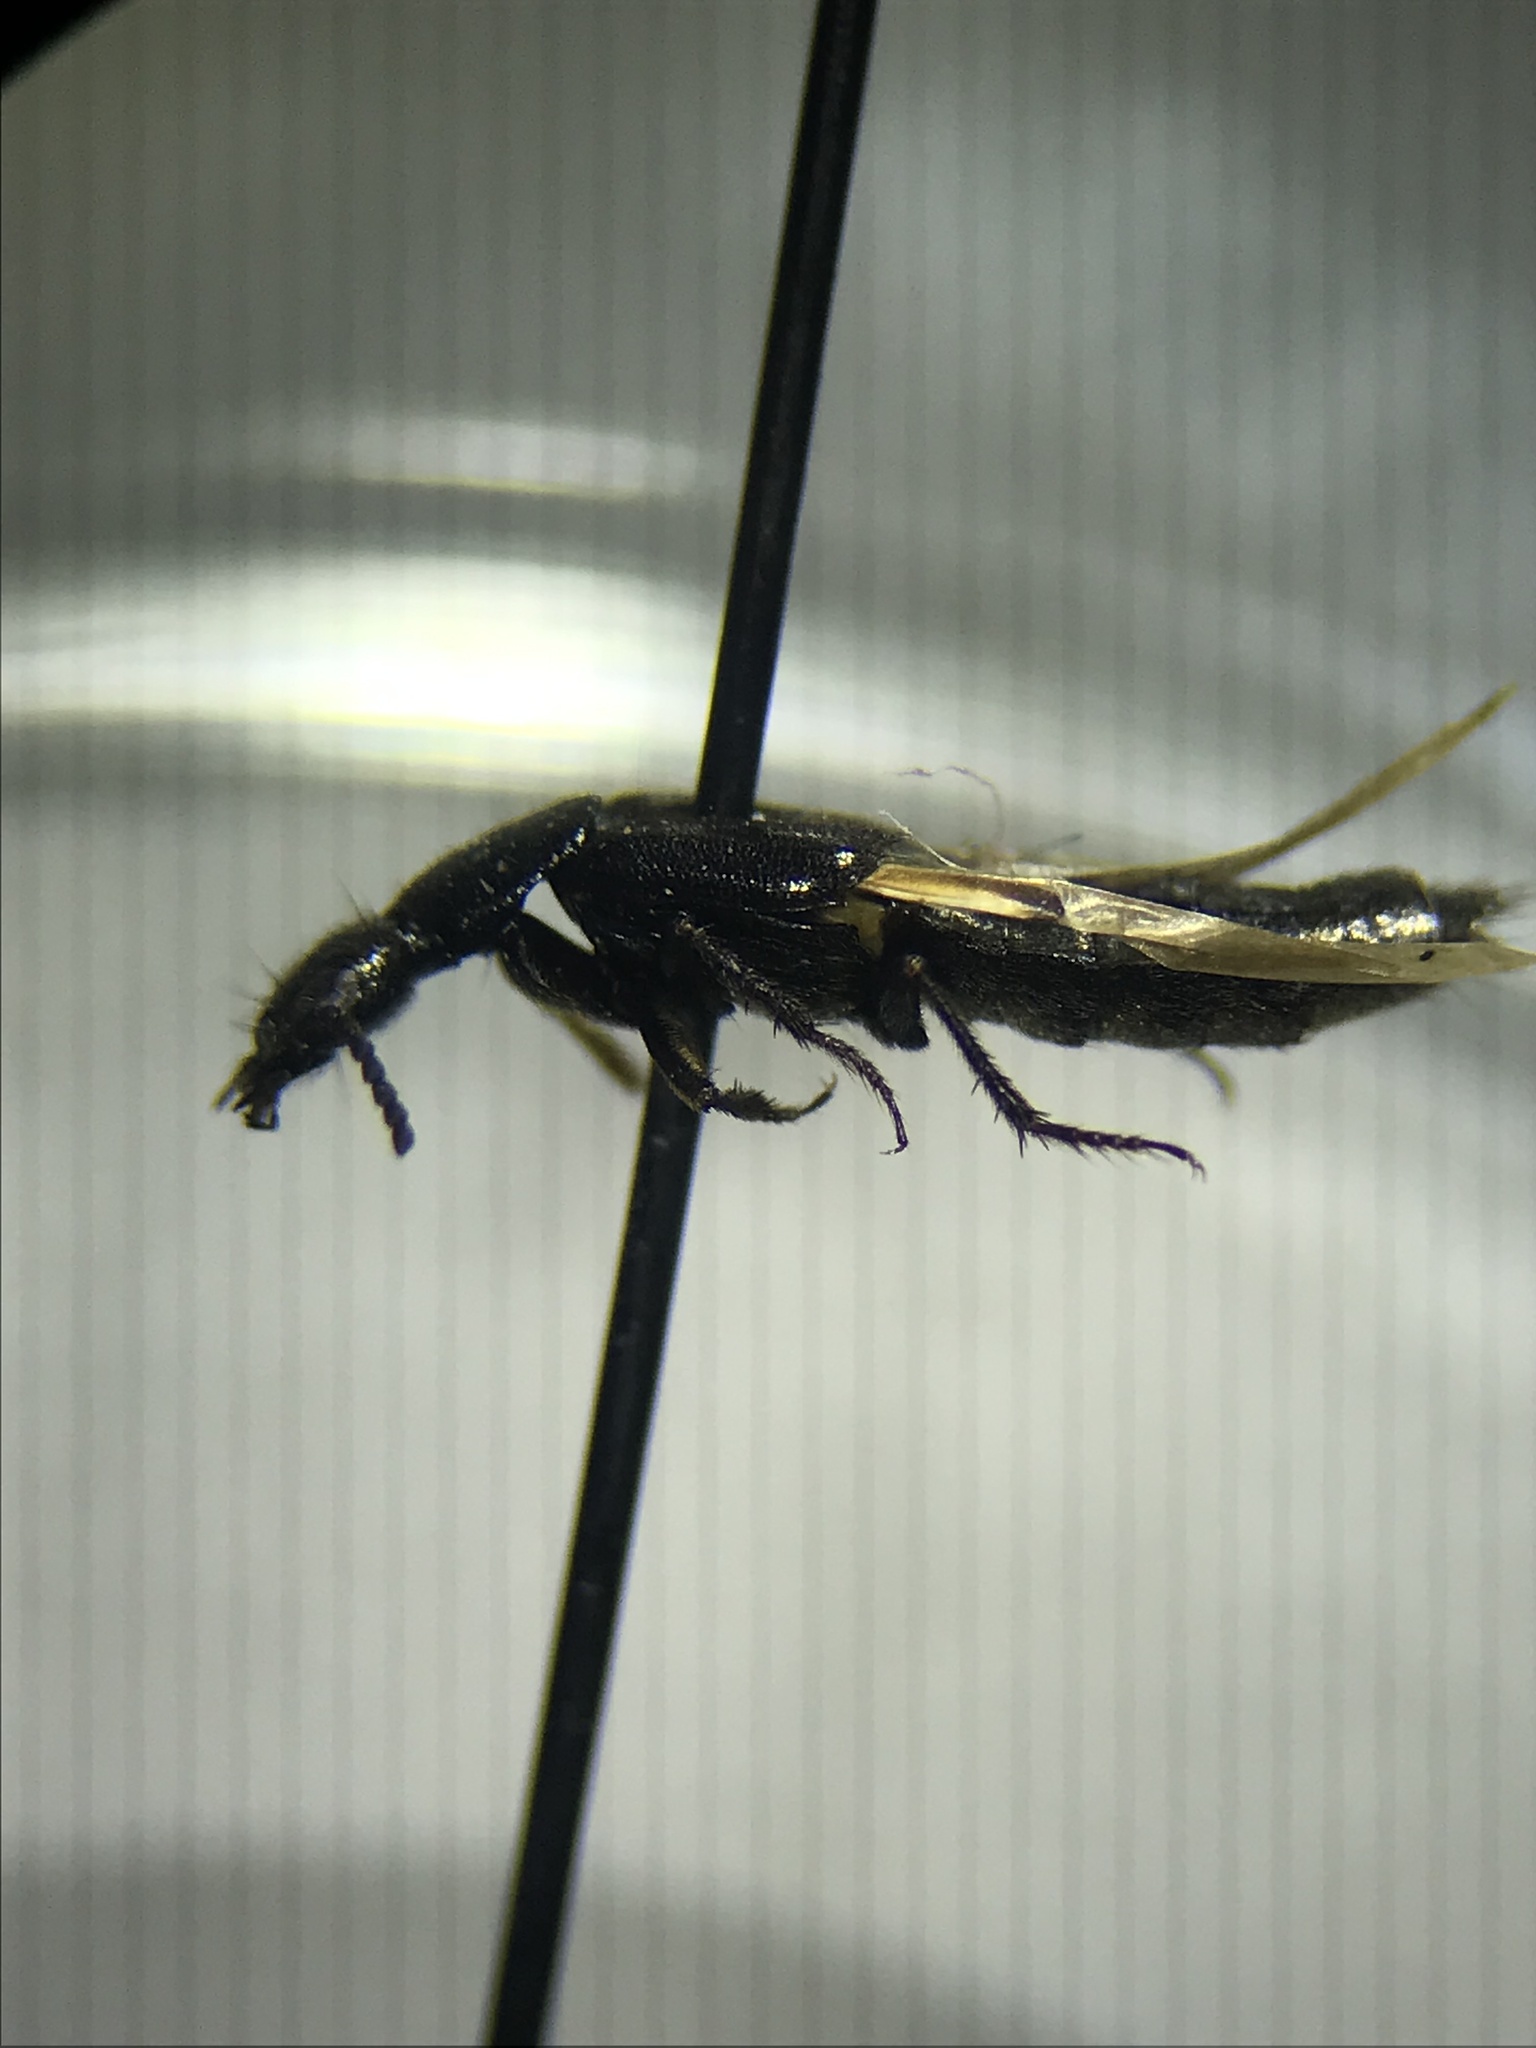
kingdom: Animalia
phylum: Arthropoda
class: Insecta
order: Coleoptera
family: Staphylinidae
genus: Philonthus
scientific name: Philonthus vulgatus
